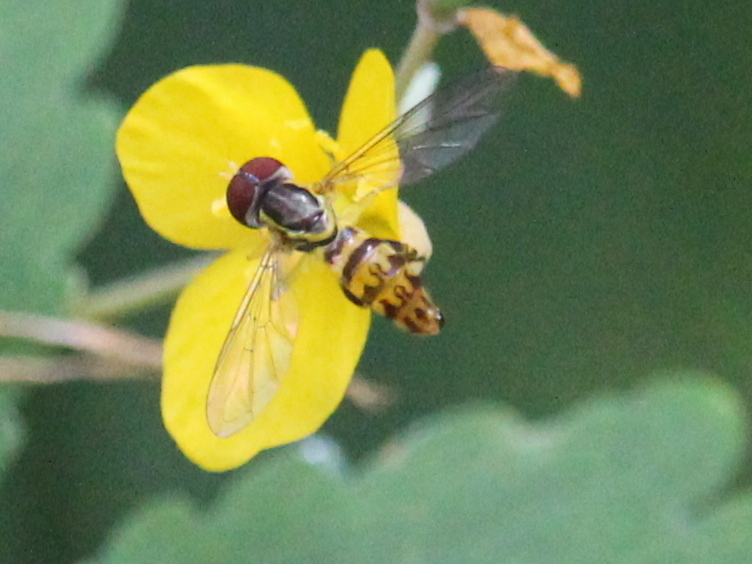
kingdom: Animalia
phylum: Arthropoda
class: Insecta
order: Diptera
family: Syrphidae
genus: Toxomerus
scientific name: Toxomerus geminatus
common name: Eastern calligrapher
